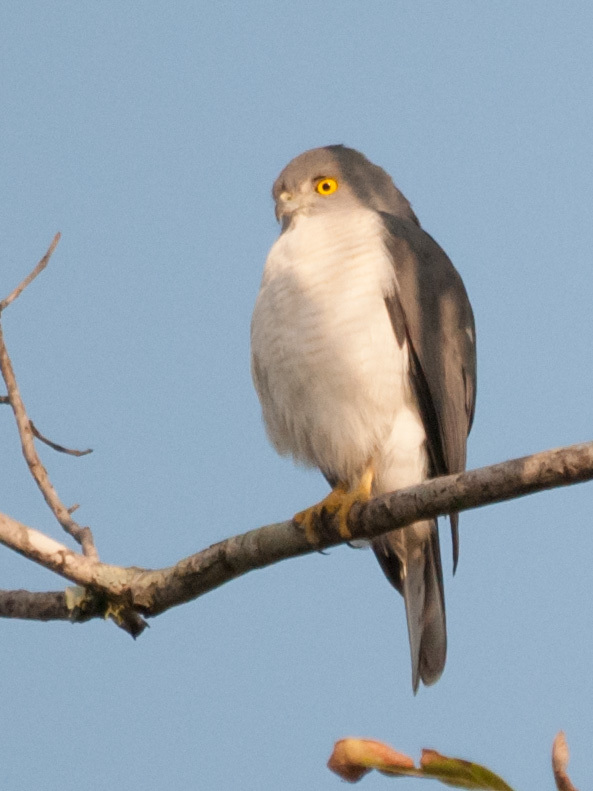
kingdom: Animalia
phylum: Chordata
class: Aves
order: Accipitriformes
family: Accipitridae
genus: Accipiter
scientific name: Accipiter francesiae
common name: Frances's sparrowhawk
